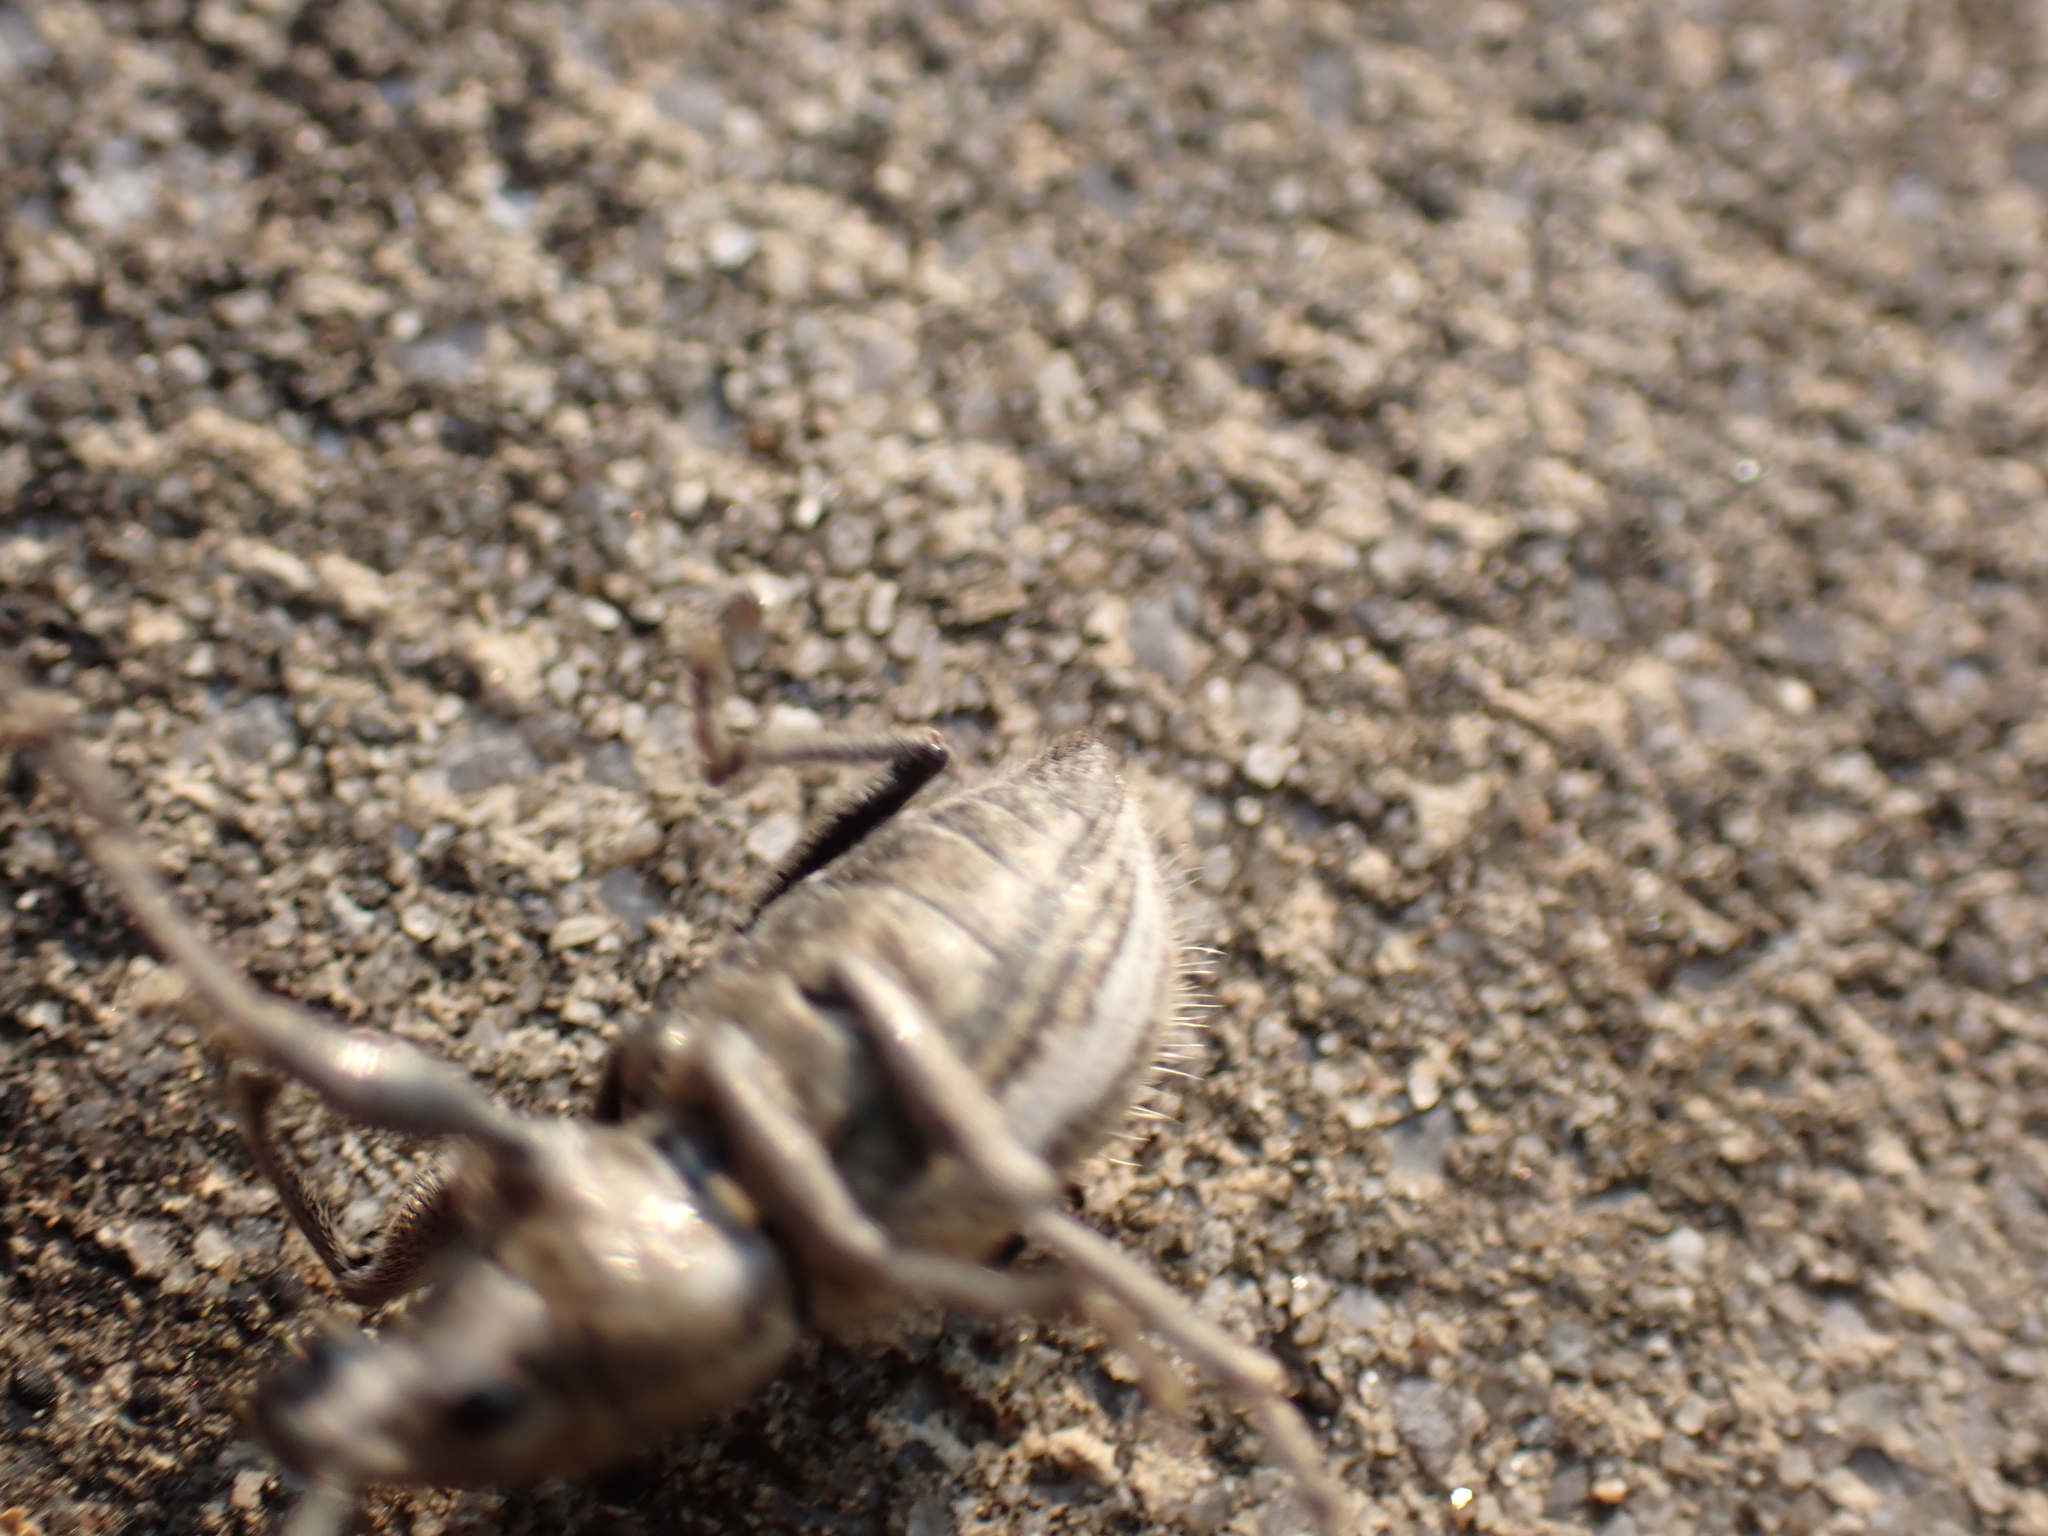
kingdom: Animalia
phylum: Arthropoda
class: Insecta
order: Coleoptera
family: Curculionidae
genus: Naupactus
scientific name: Naupactus leucoloma
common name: Whitefringed beetle
